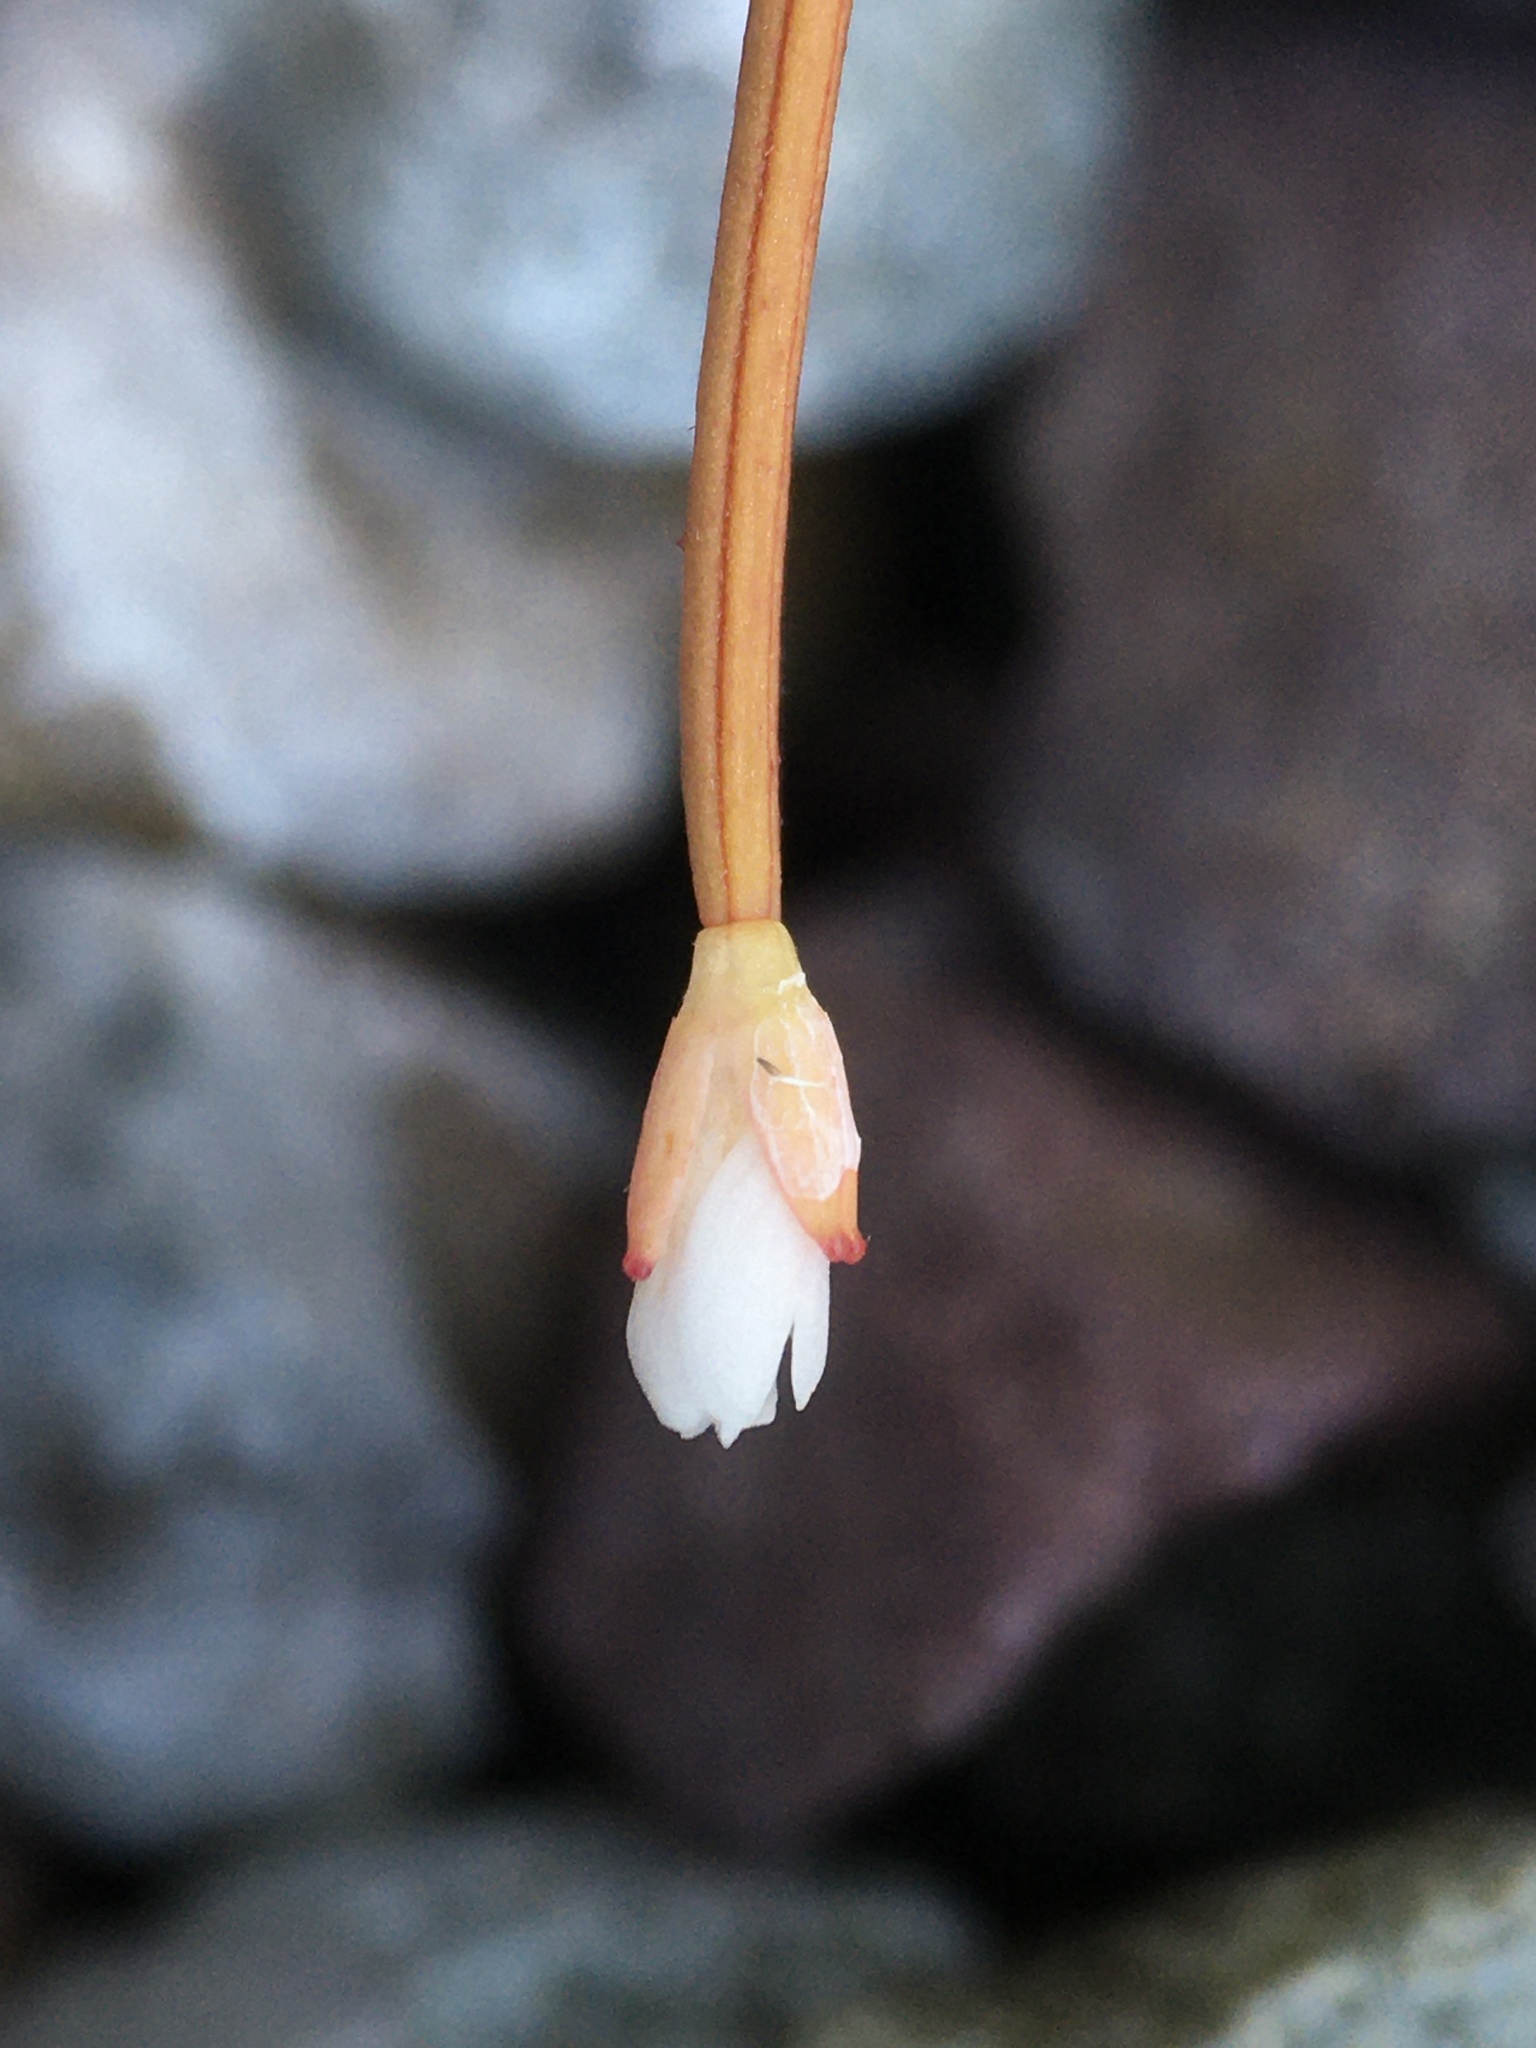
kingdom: Plantae
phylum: Tracheophyta
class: Magnoliopsida
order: Myrtales
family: Onagraceae
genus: Epilobium
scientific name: Epilobium brunnescens
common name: New zealand willowherb
